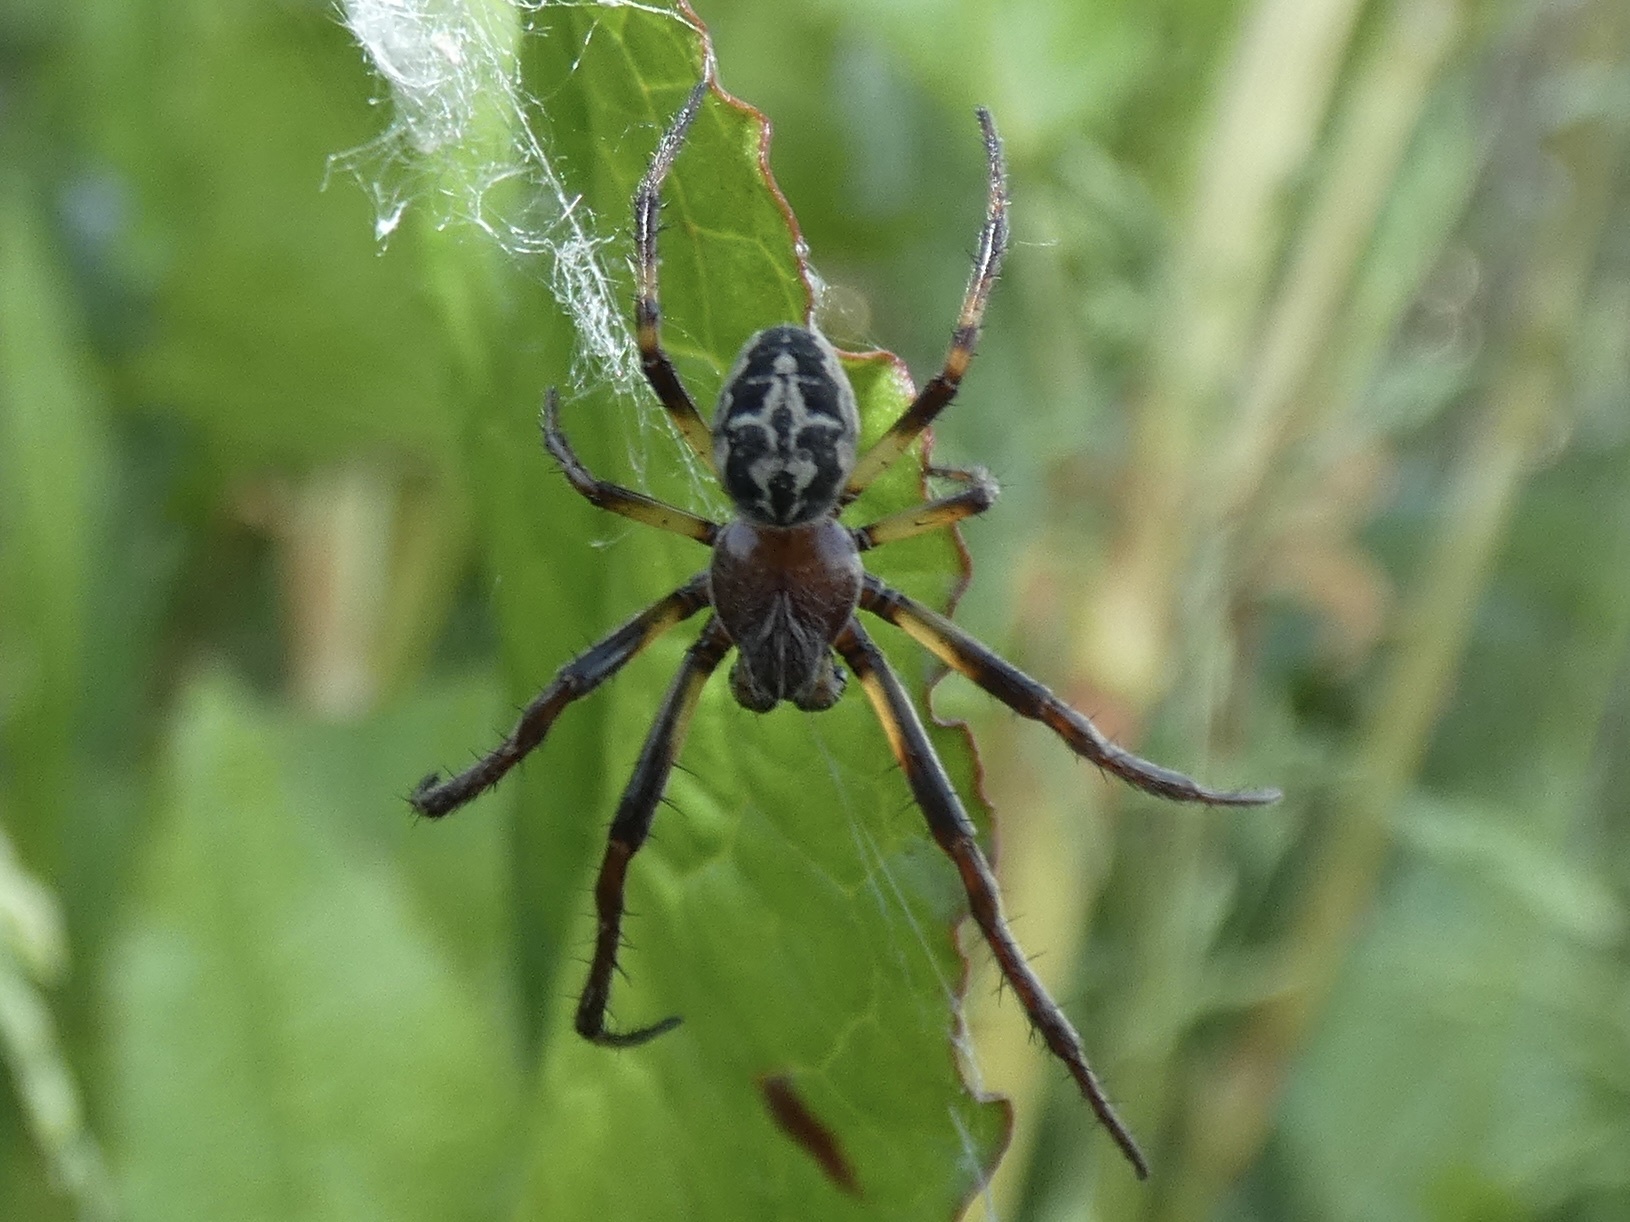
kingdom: Animalia
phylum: Arthropoda
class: Arachnida
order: Araneae
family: Araneidae
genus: Larinioides
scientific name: Larinioides cornutus
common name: Furrow orbweaver
